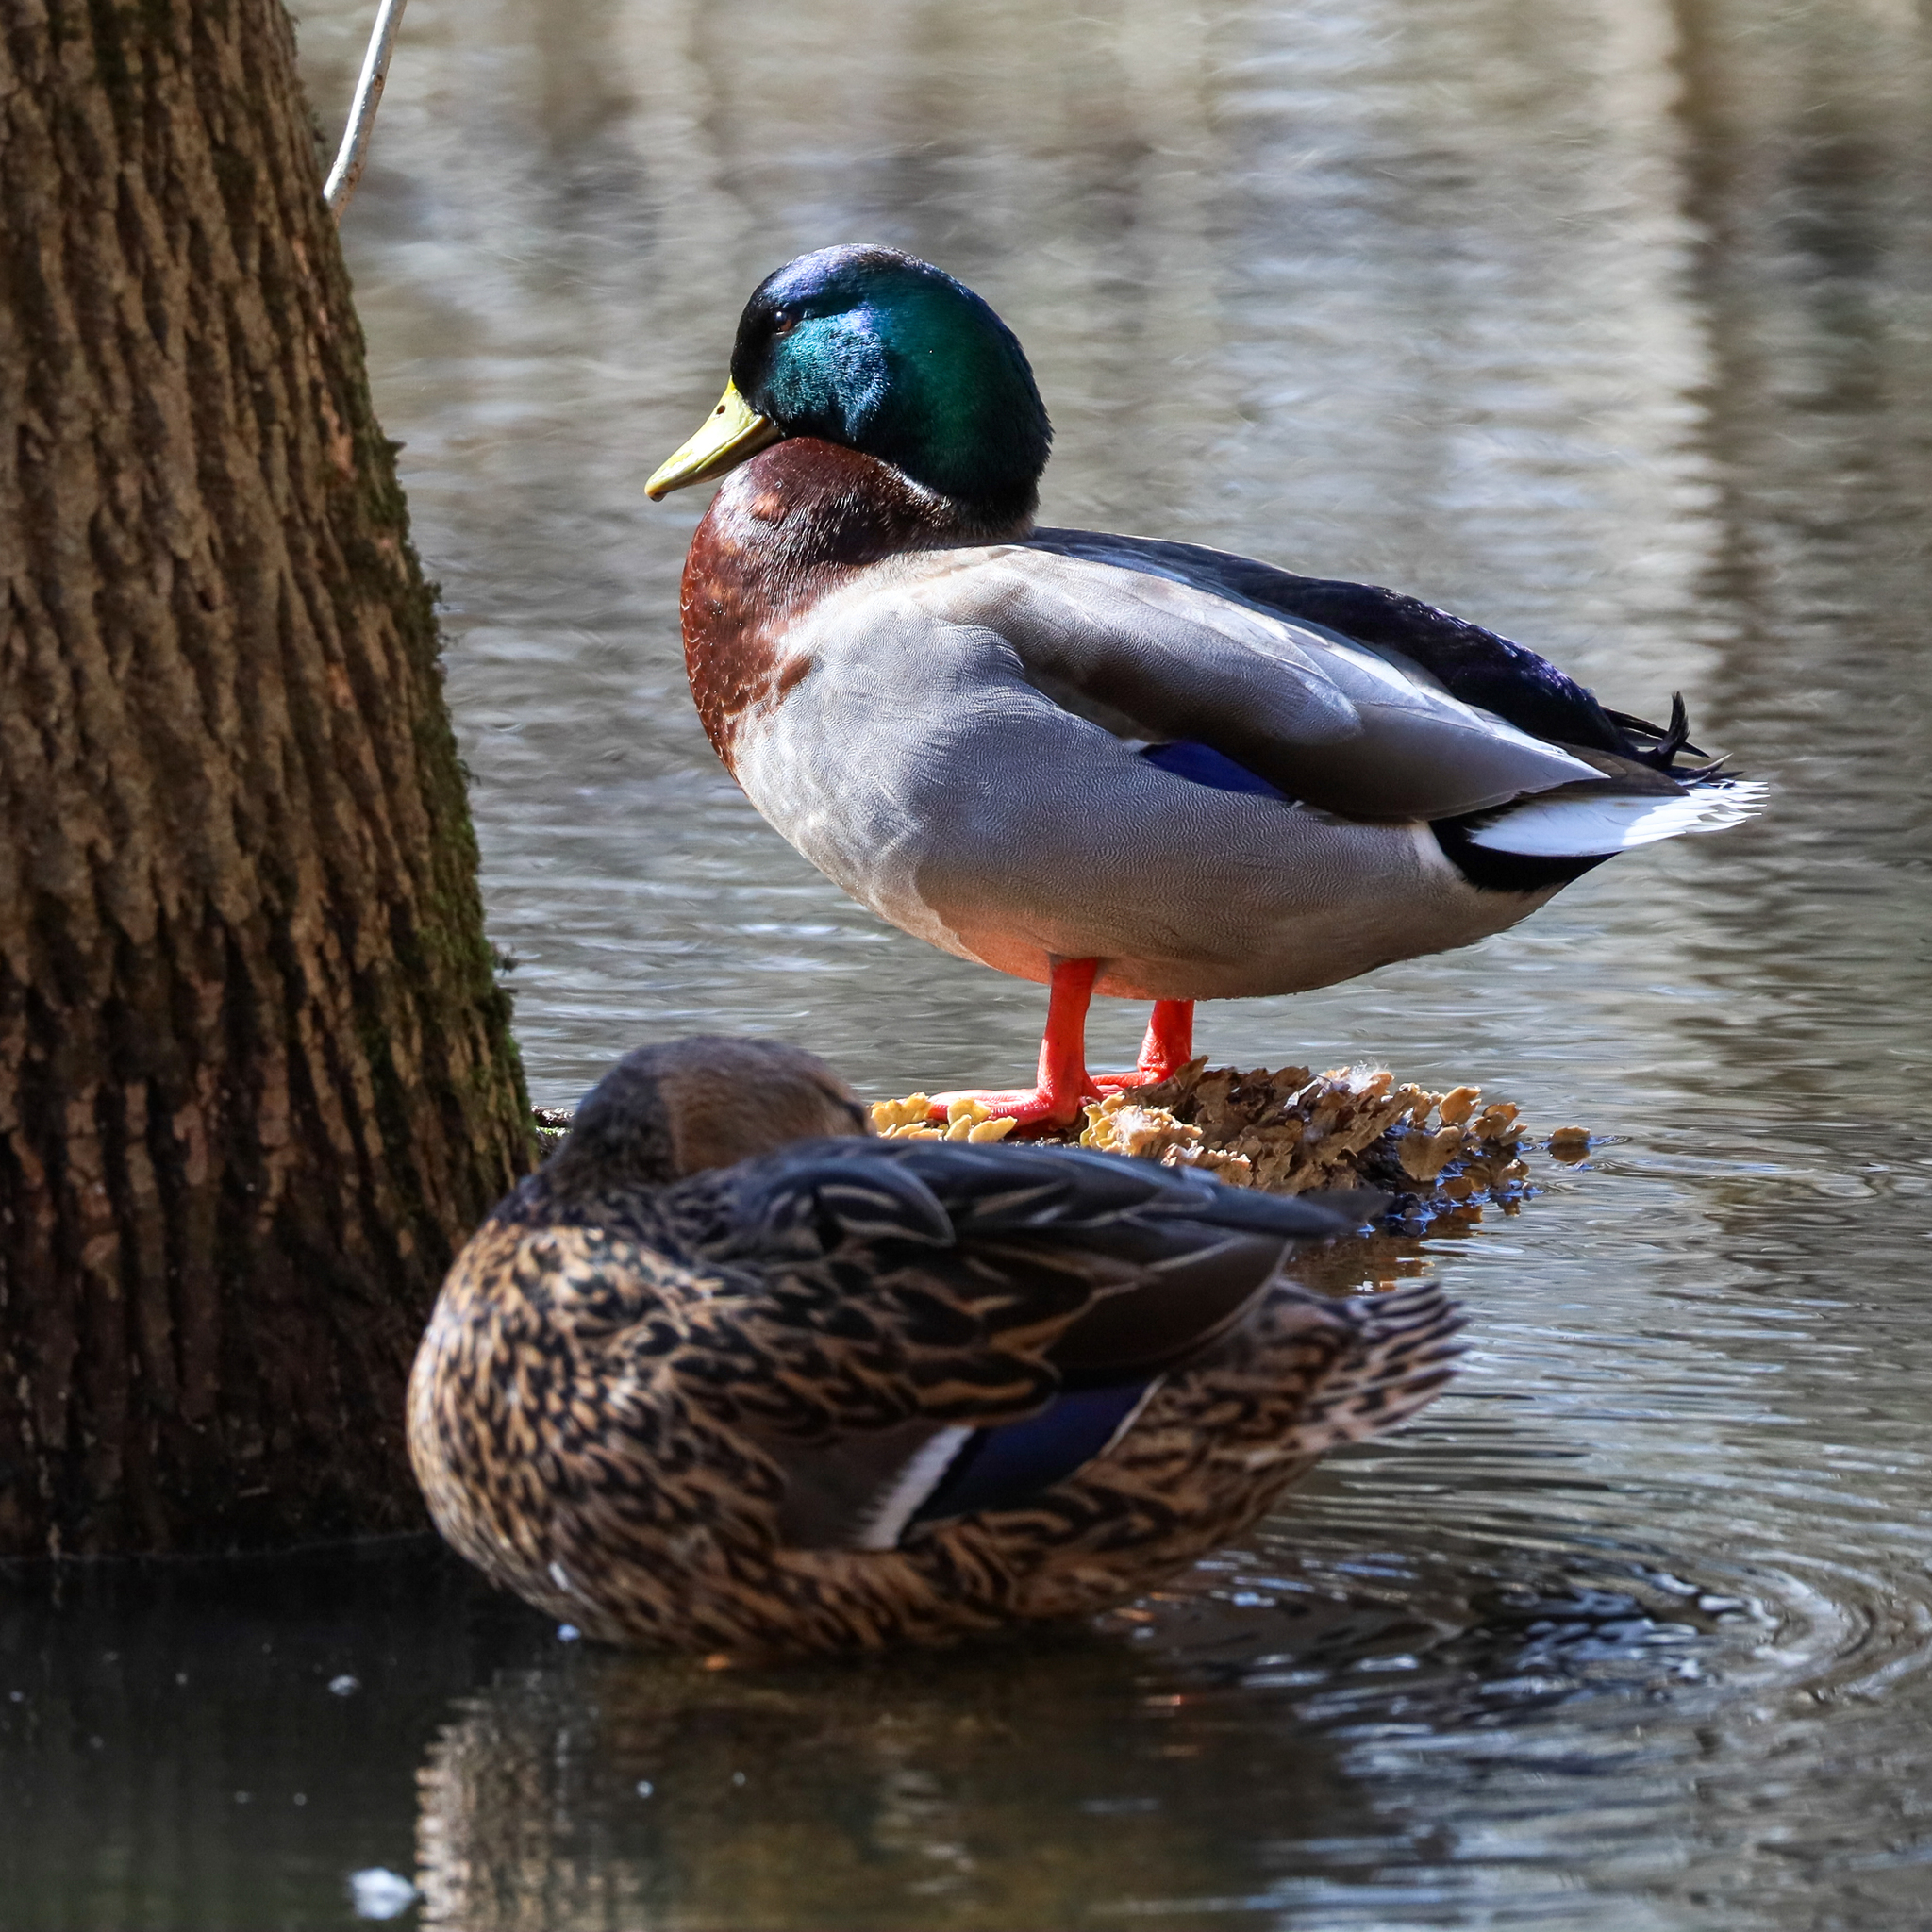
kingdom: Animalia
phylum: Chordata
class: Aves
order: Anseriformes
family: Anatidae
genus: Anas
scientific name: Anas platyrhynchos
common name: Mallard
